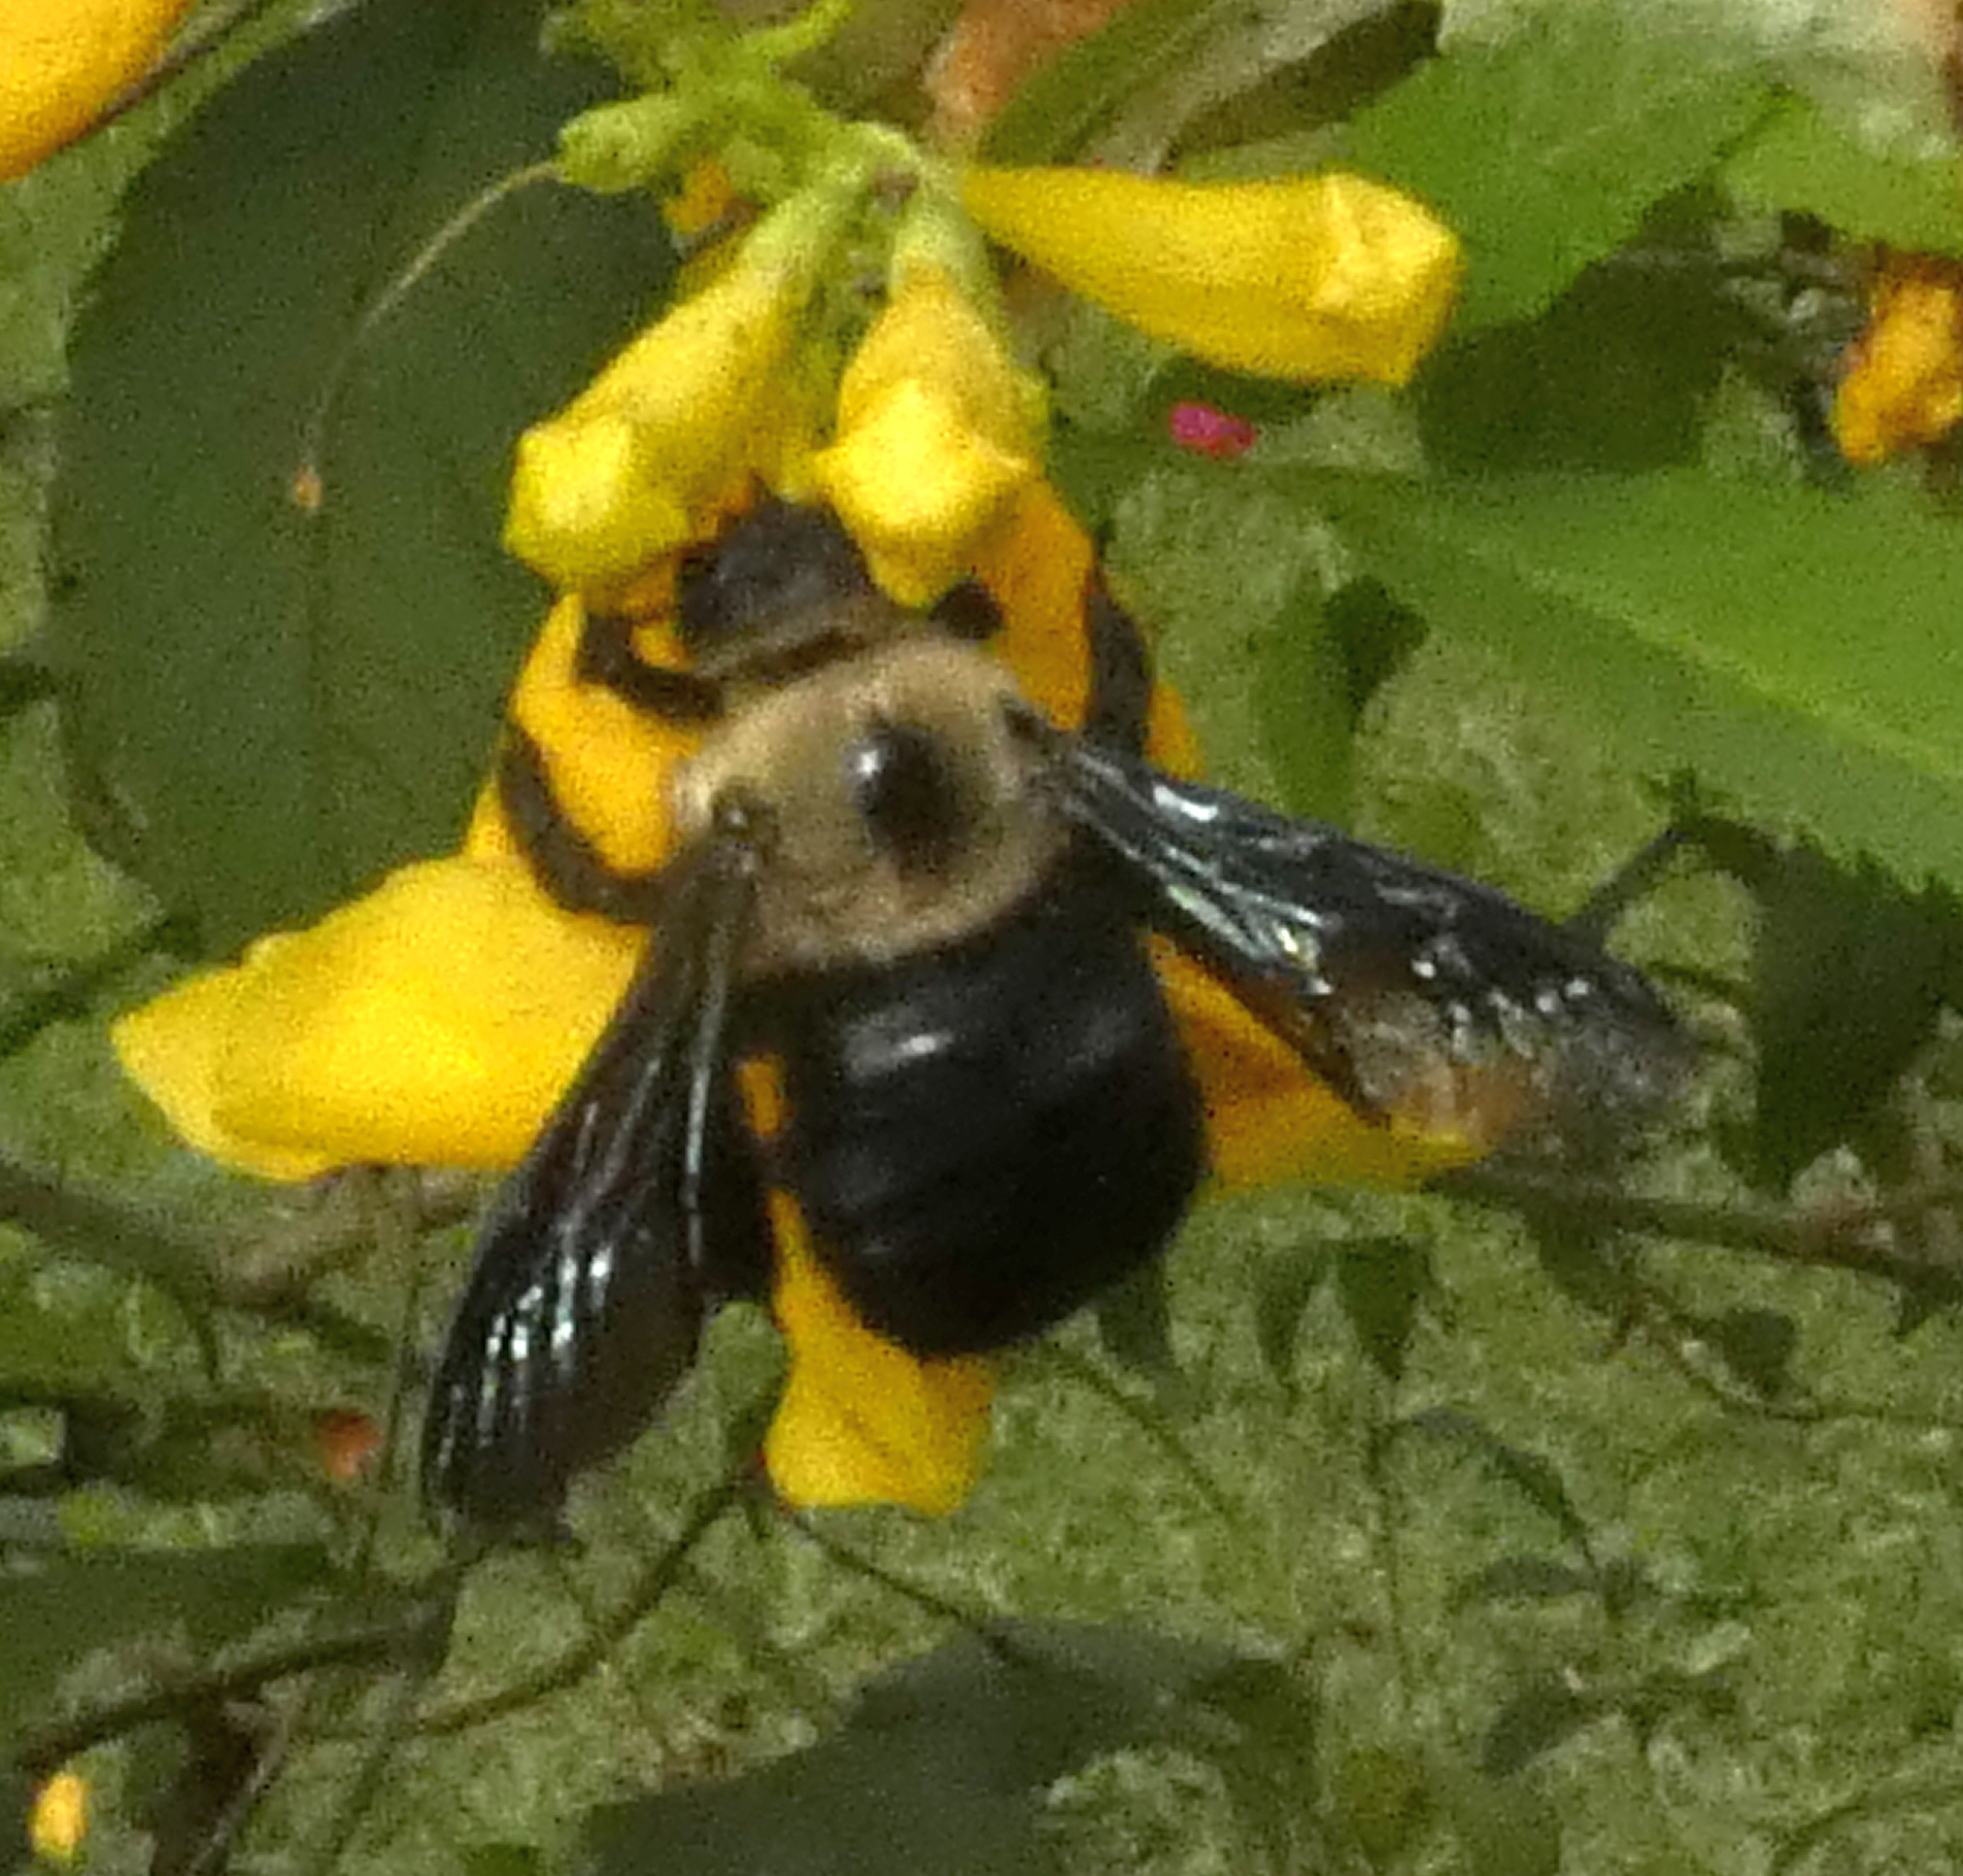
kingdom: Animalia
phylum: Arthropoda
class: Insecta
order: Hymenoptera
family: Apidae
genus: Xylocopa
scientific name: Xylocopa grisescens
